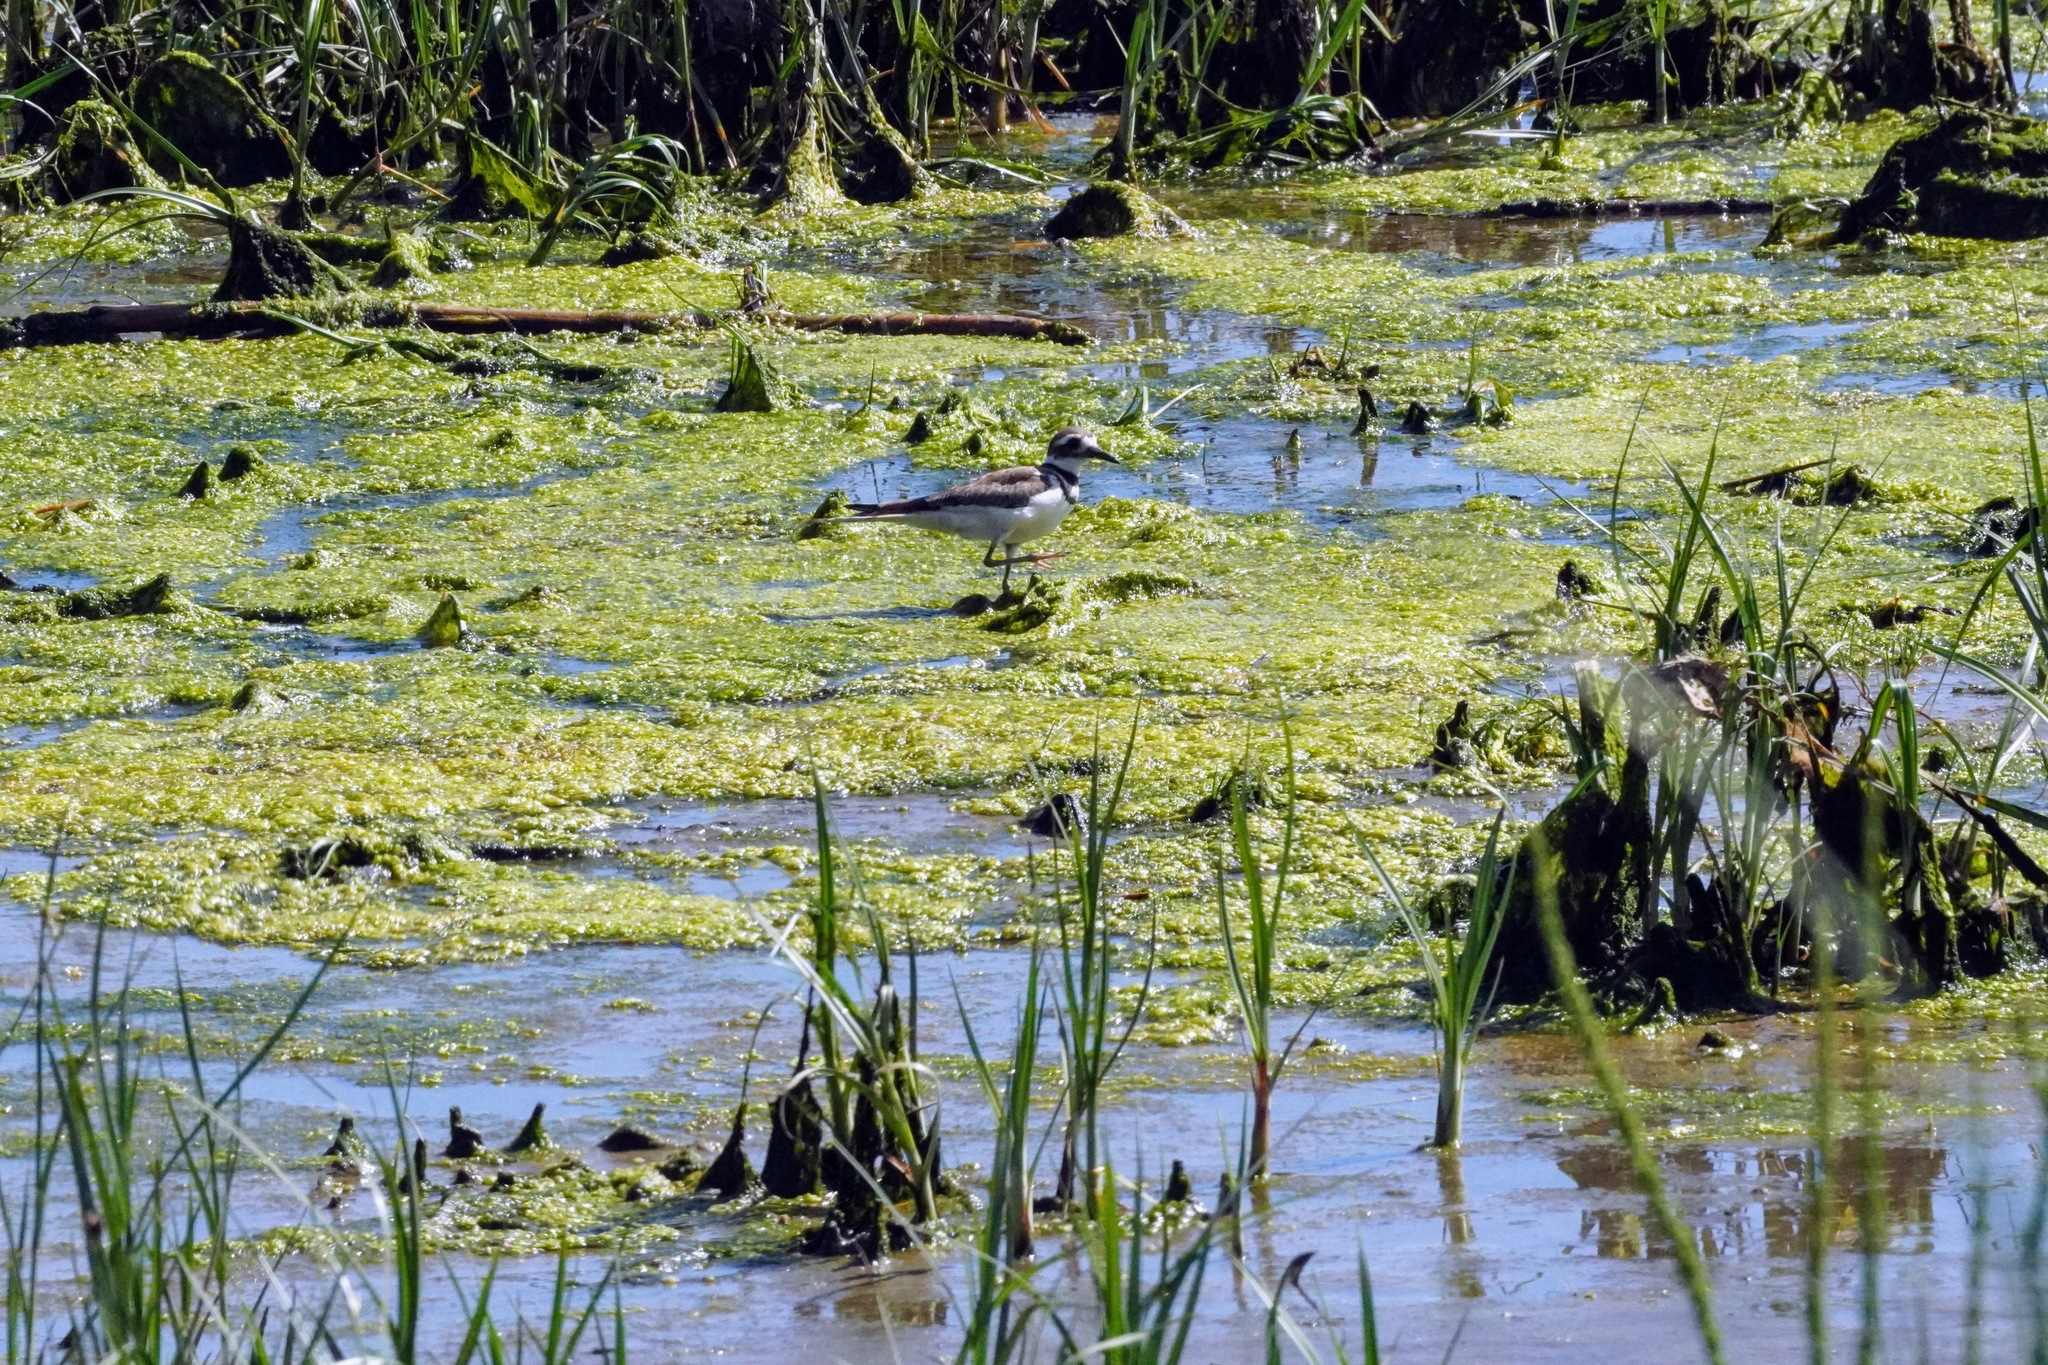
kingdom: Animalia
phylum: Chordata
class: Aves
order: Charadriiformes
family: Charadriidae
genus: Charadrius
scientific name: Charadrius vociferus
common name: Killdeer
